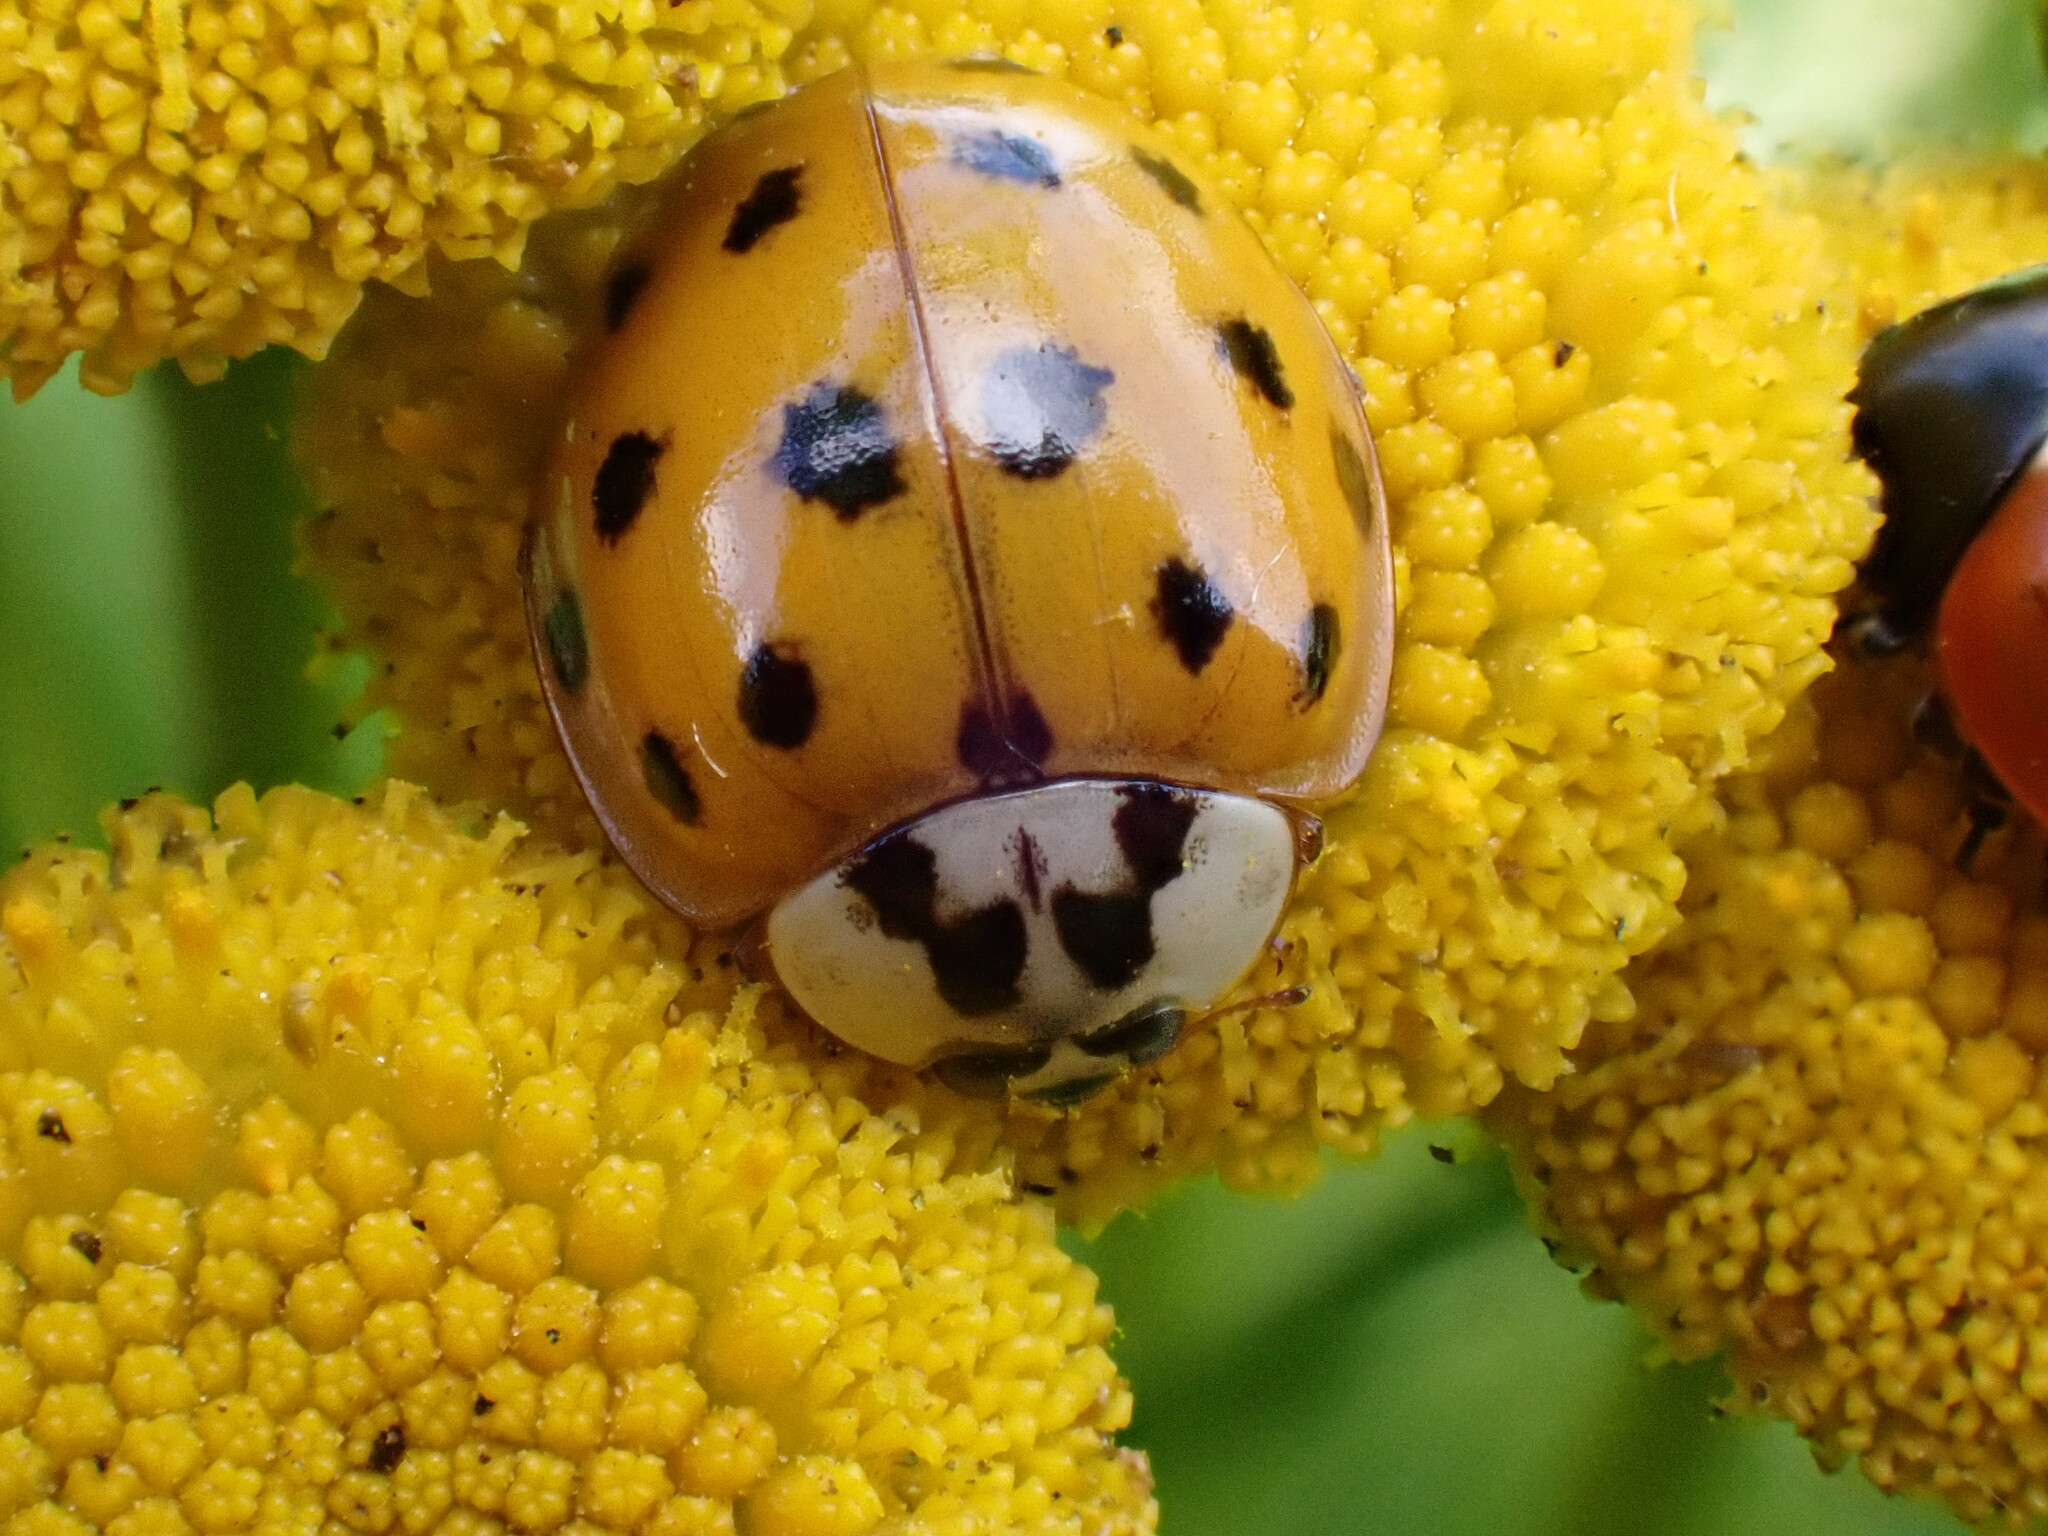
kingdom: Animalia
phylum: Arthropoda
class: Insecta
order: Coleoptera
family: Coccinellidae
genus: Harmonia
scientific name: Harmonia axyridis
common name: Harlequin ladybird
